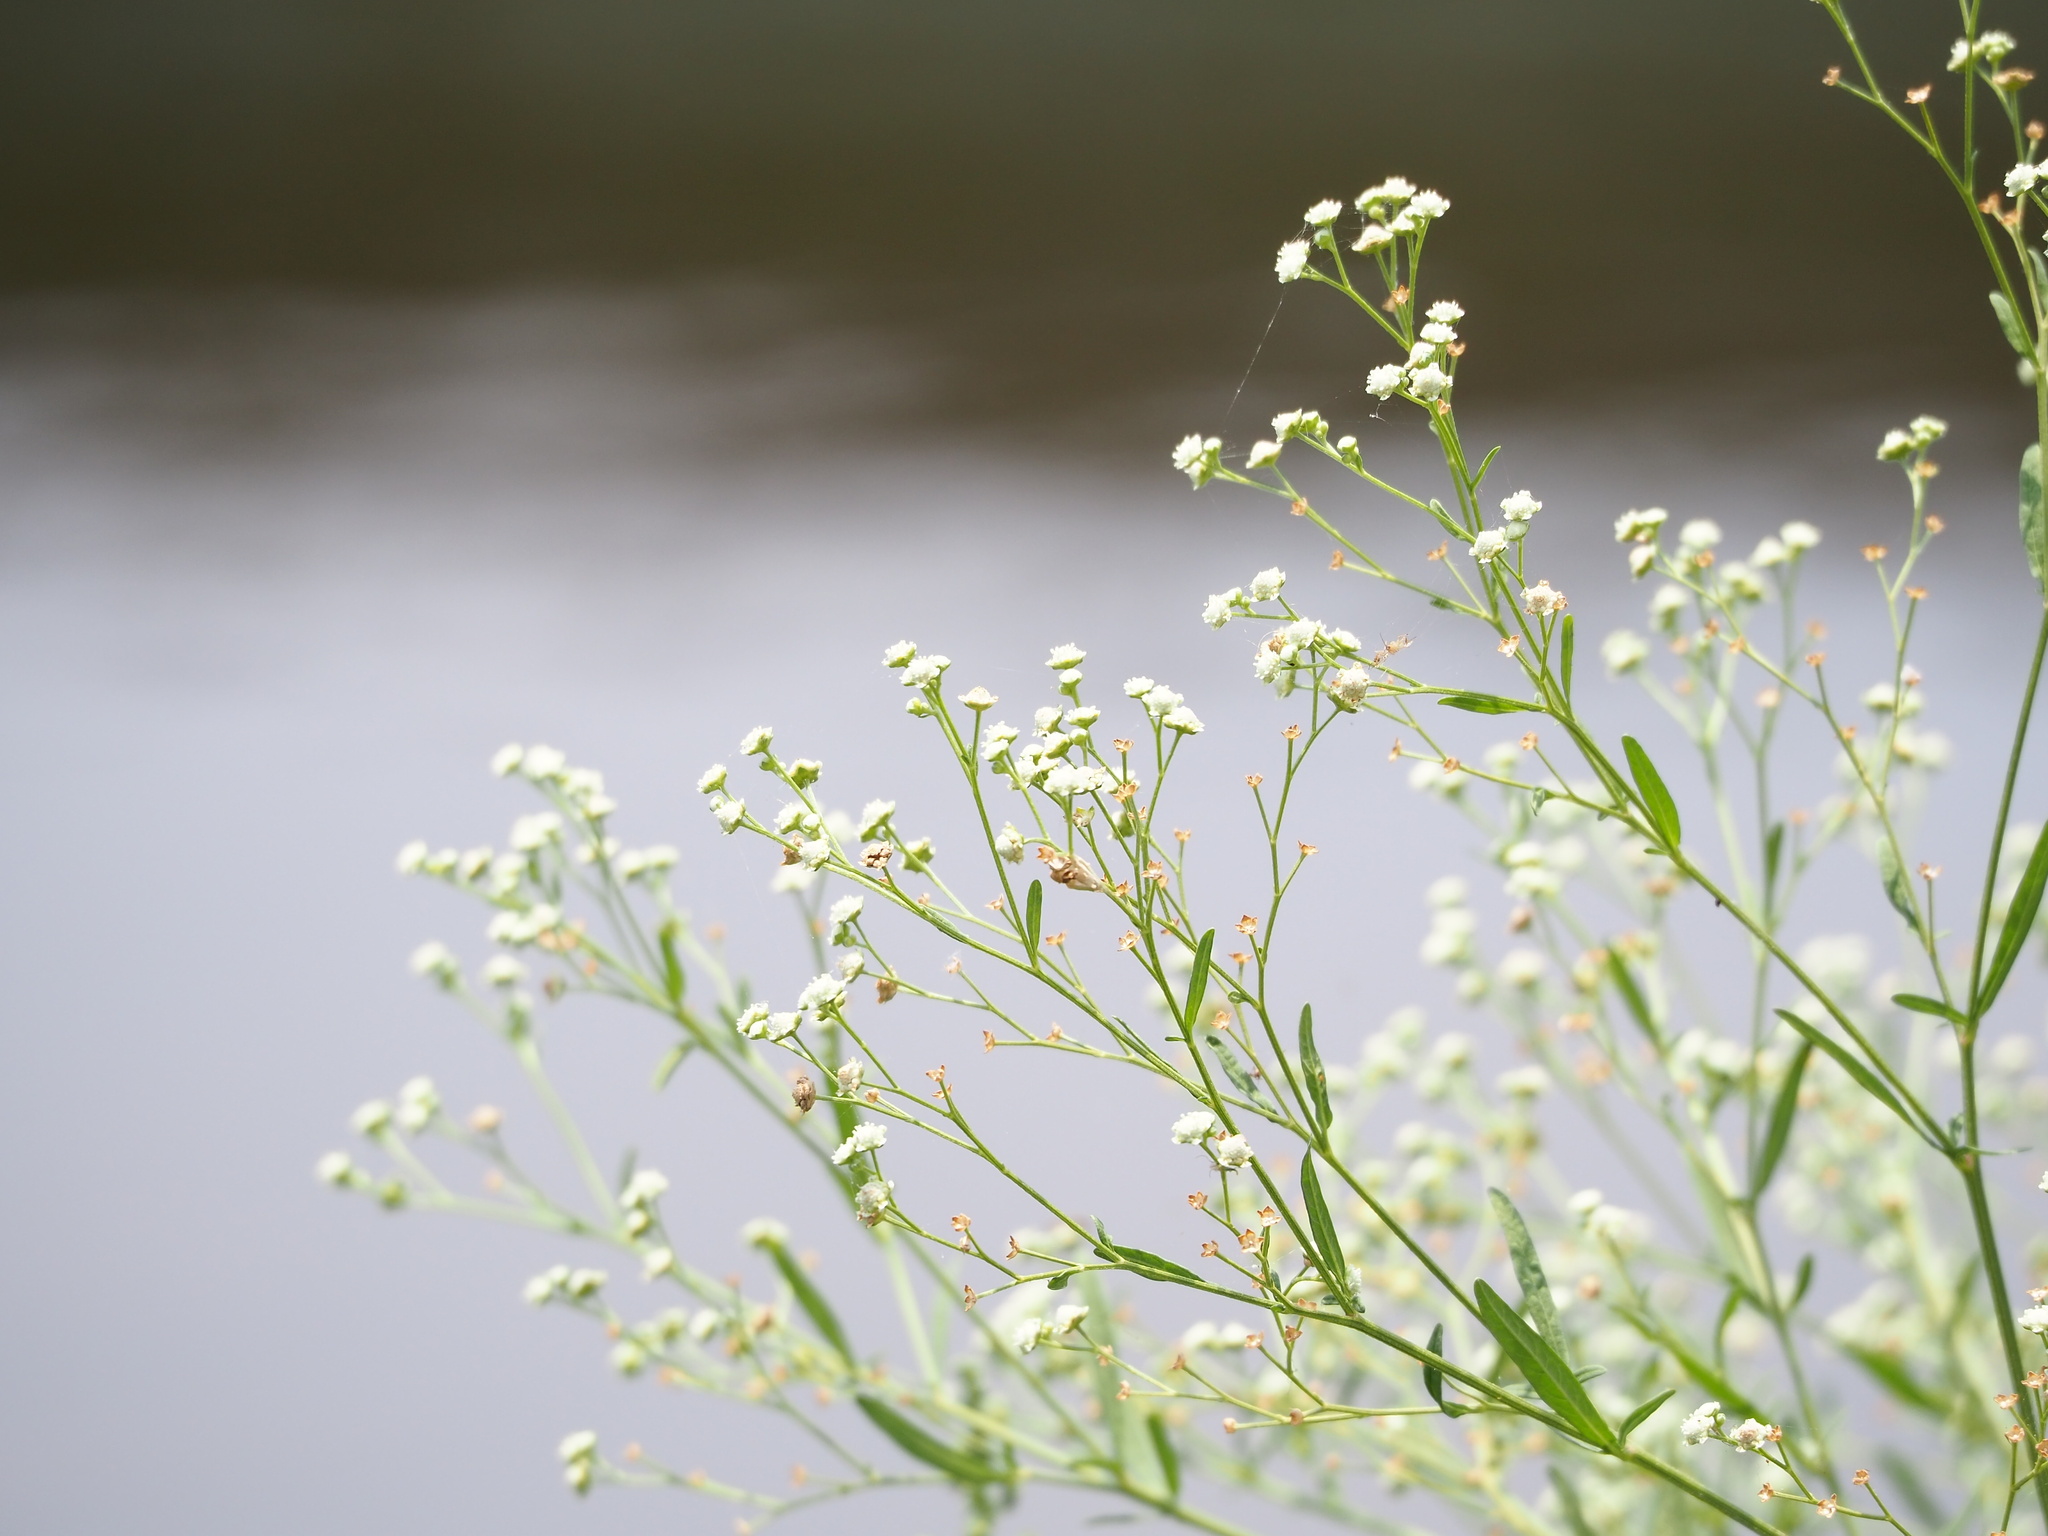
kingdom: Plantae
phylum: Tracheophyta
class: Magnoliopsida
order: Asterales
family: Asteraceae
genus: Parthenium
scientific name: Parthenium hysterophorus
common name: Santa maria feverfew
